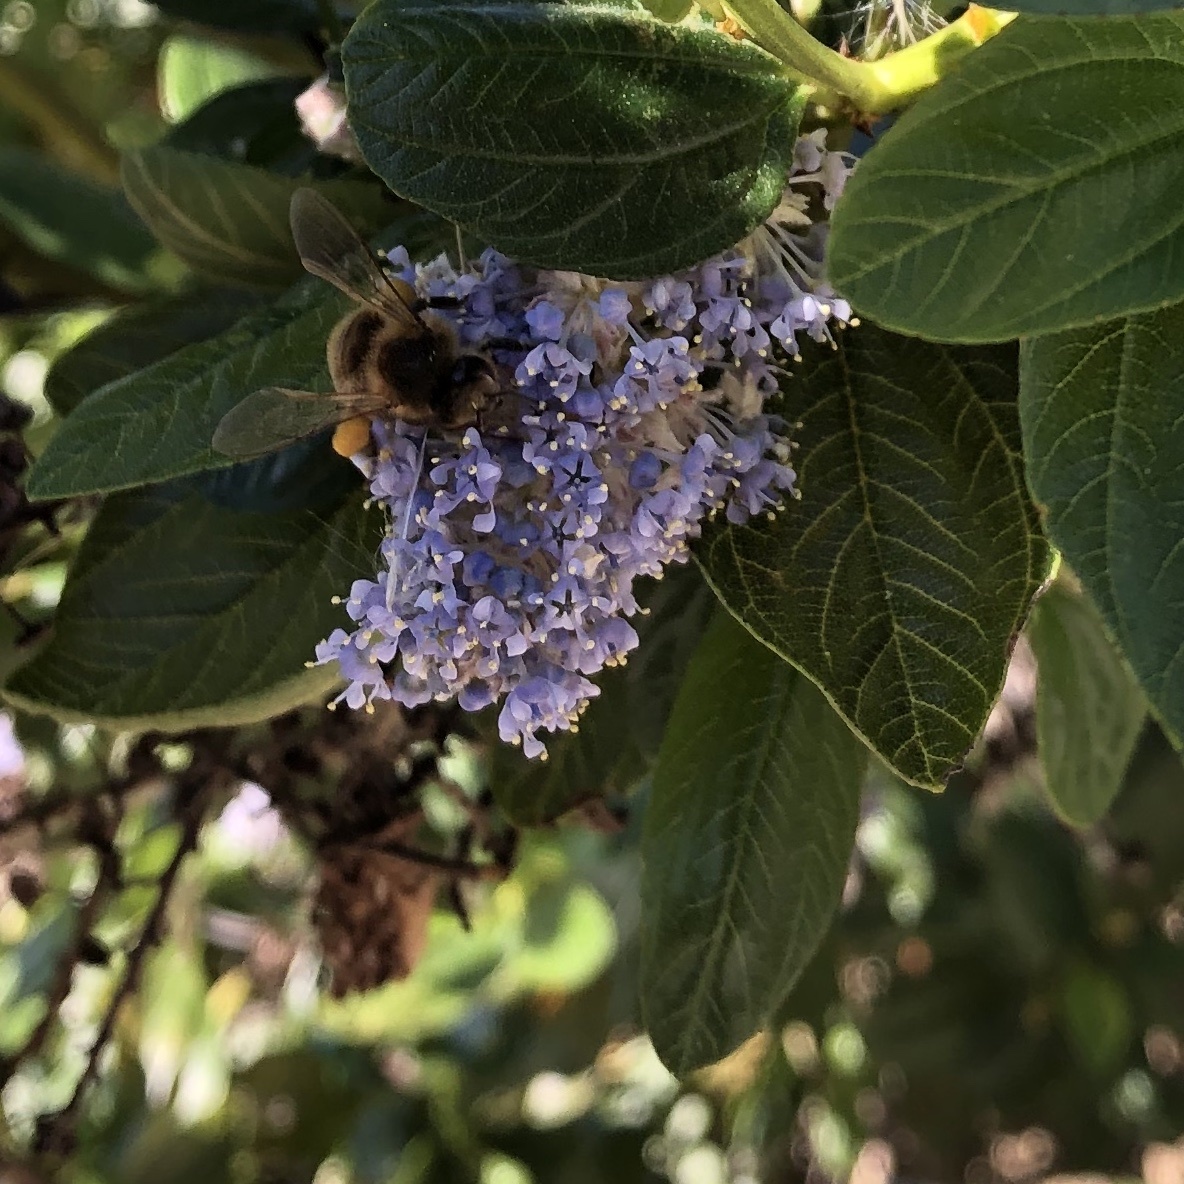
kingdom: Animalia
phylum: Arthropoda
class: Insecta
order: Hymenoptera
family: Apidae
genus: Apis
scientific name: Apis mellifera
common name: Honey bee
